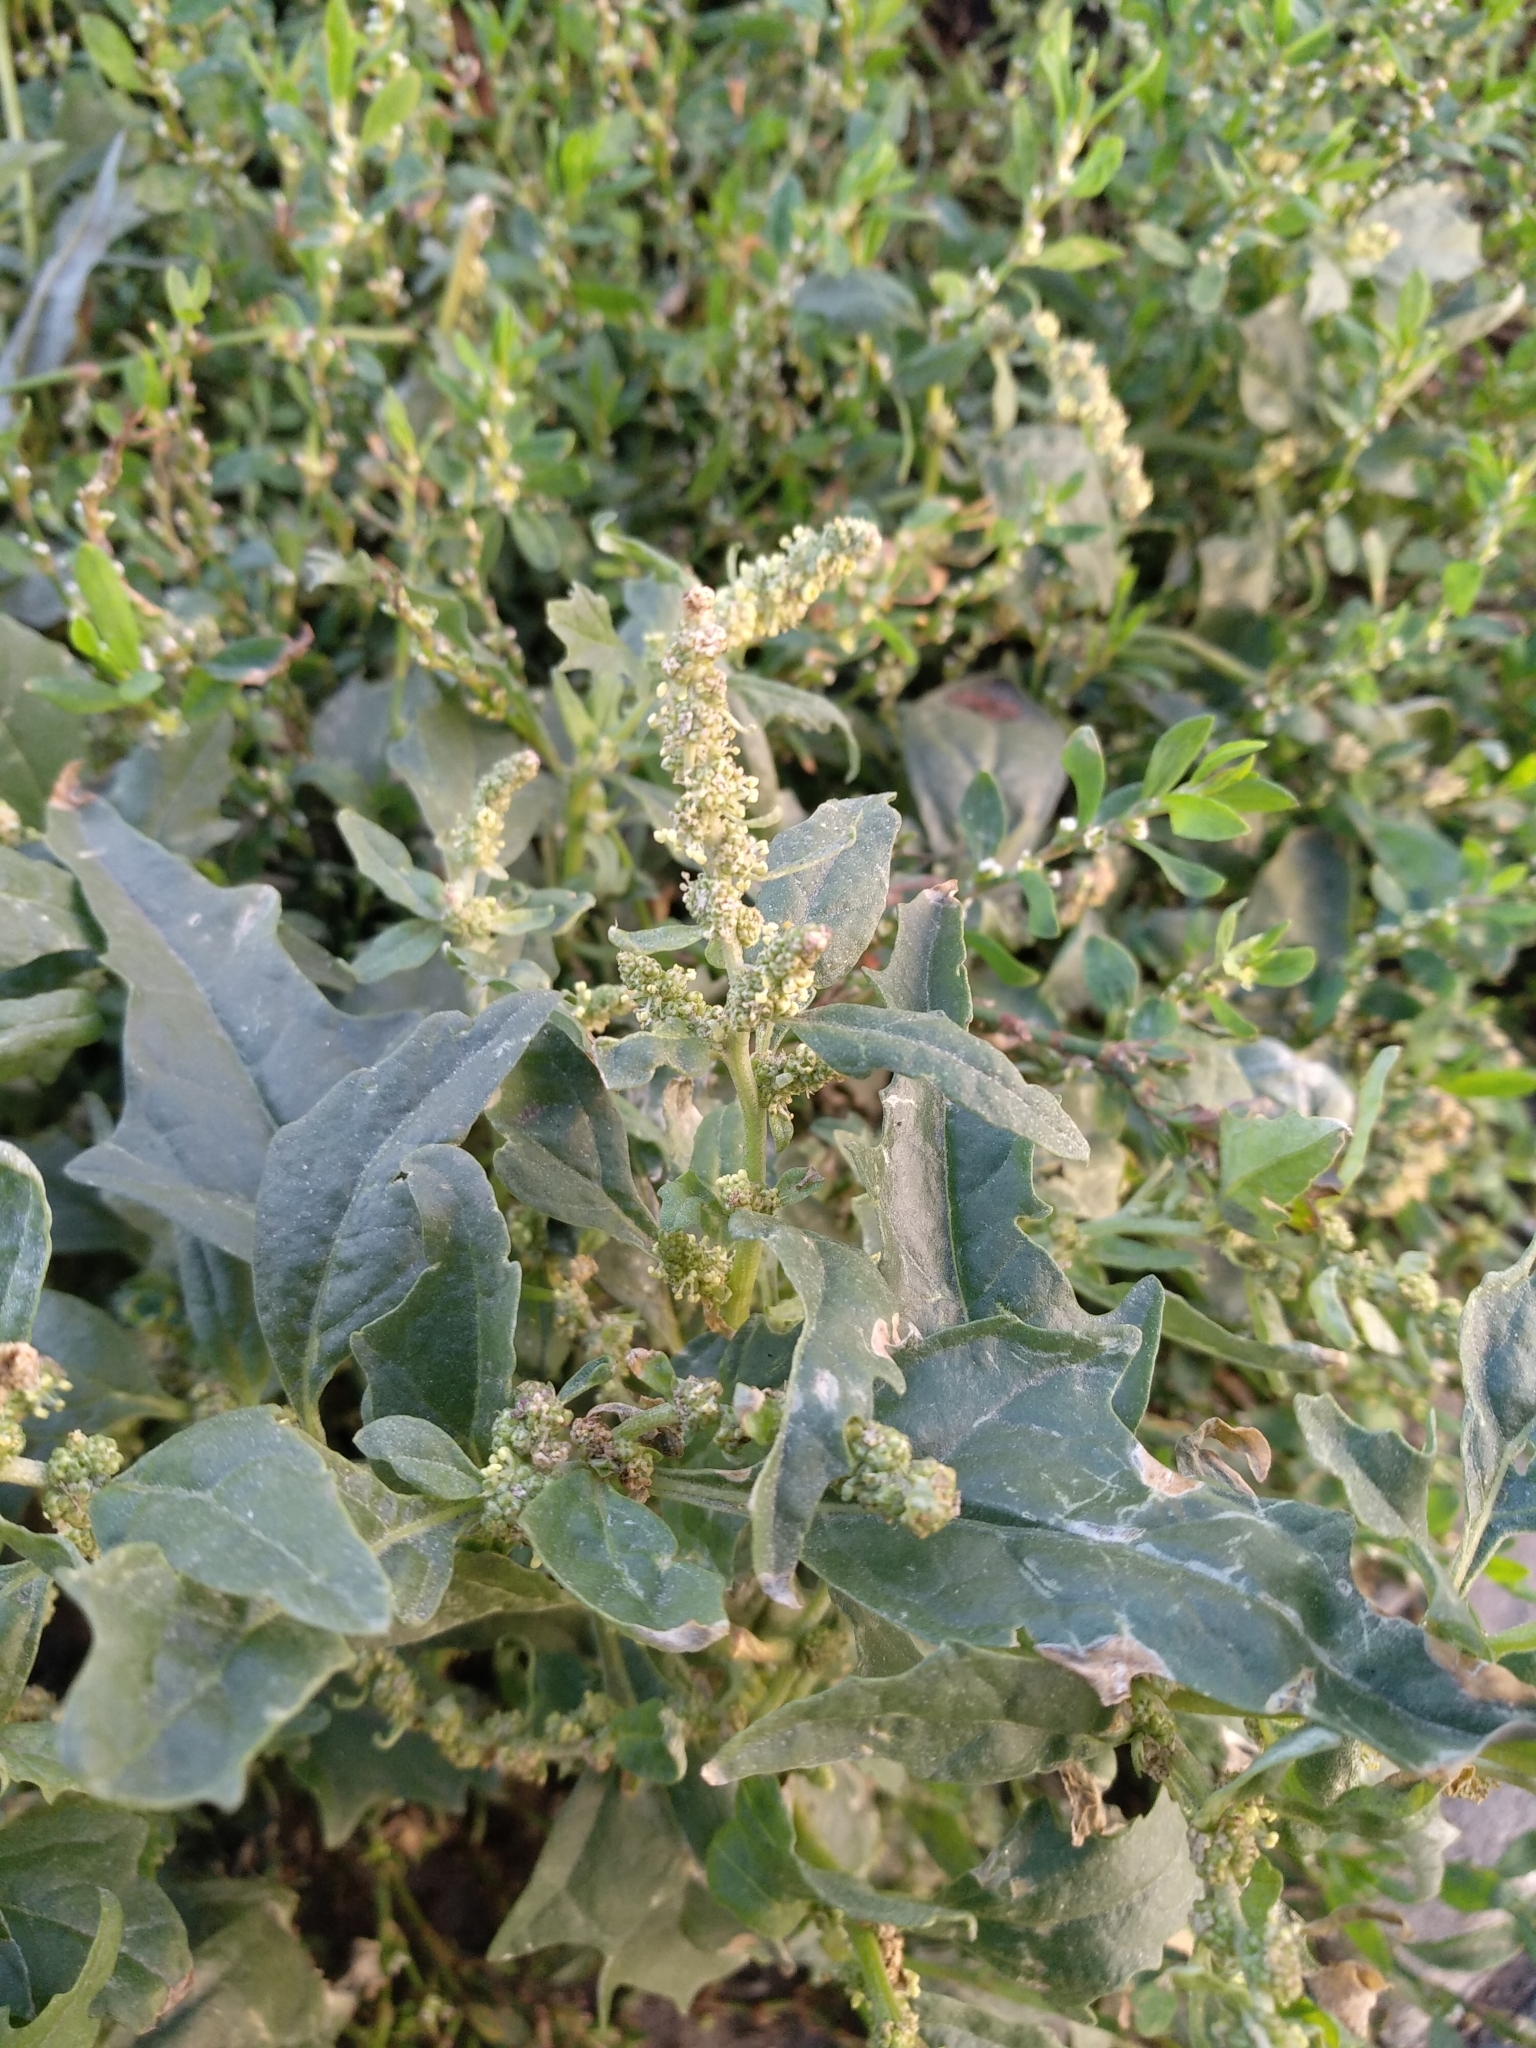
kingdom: Plantae
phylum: Tracheophyta
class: Magnoliopsida
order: Caryophyllales
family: Amaranthaceae
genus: Atriplex
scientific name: Atriplex tatarica
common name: Tatarian orache
